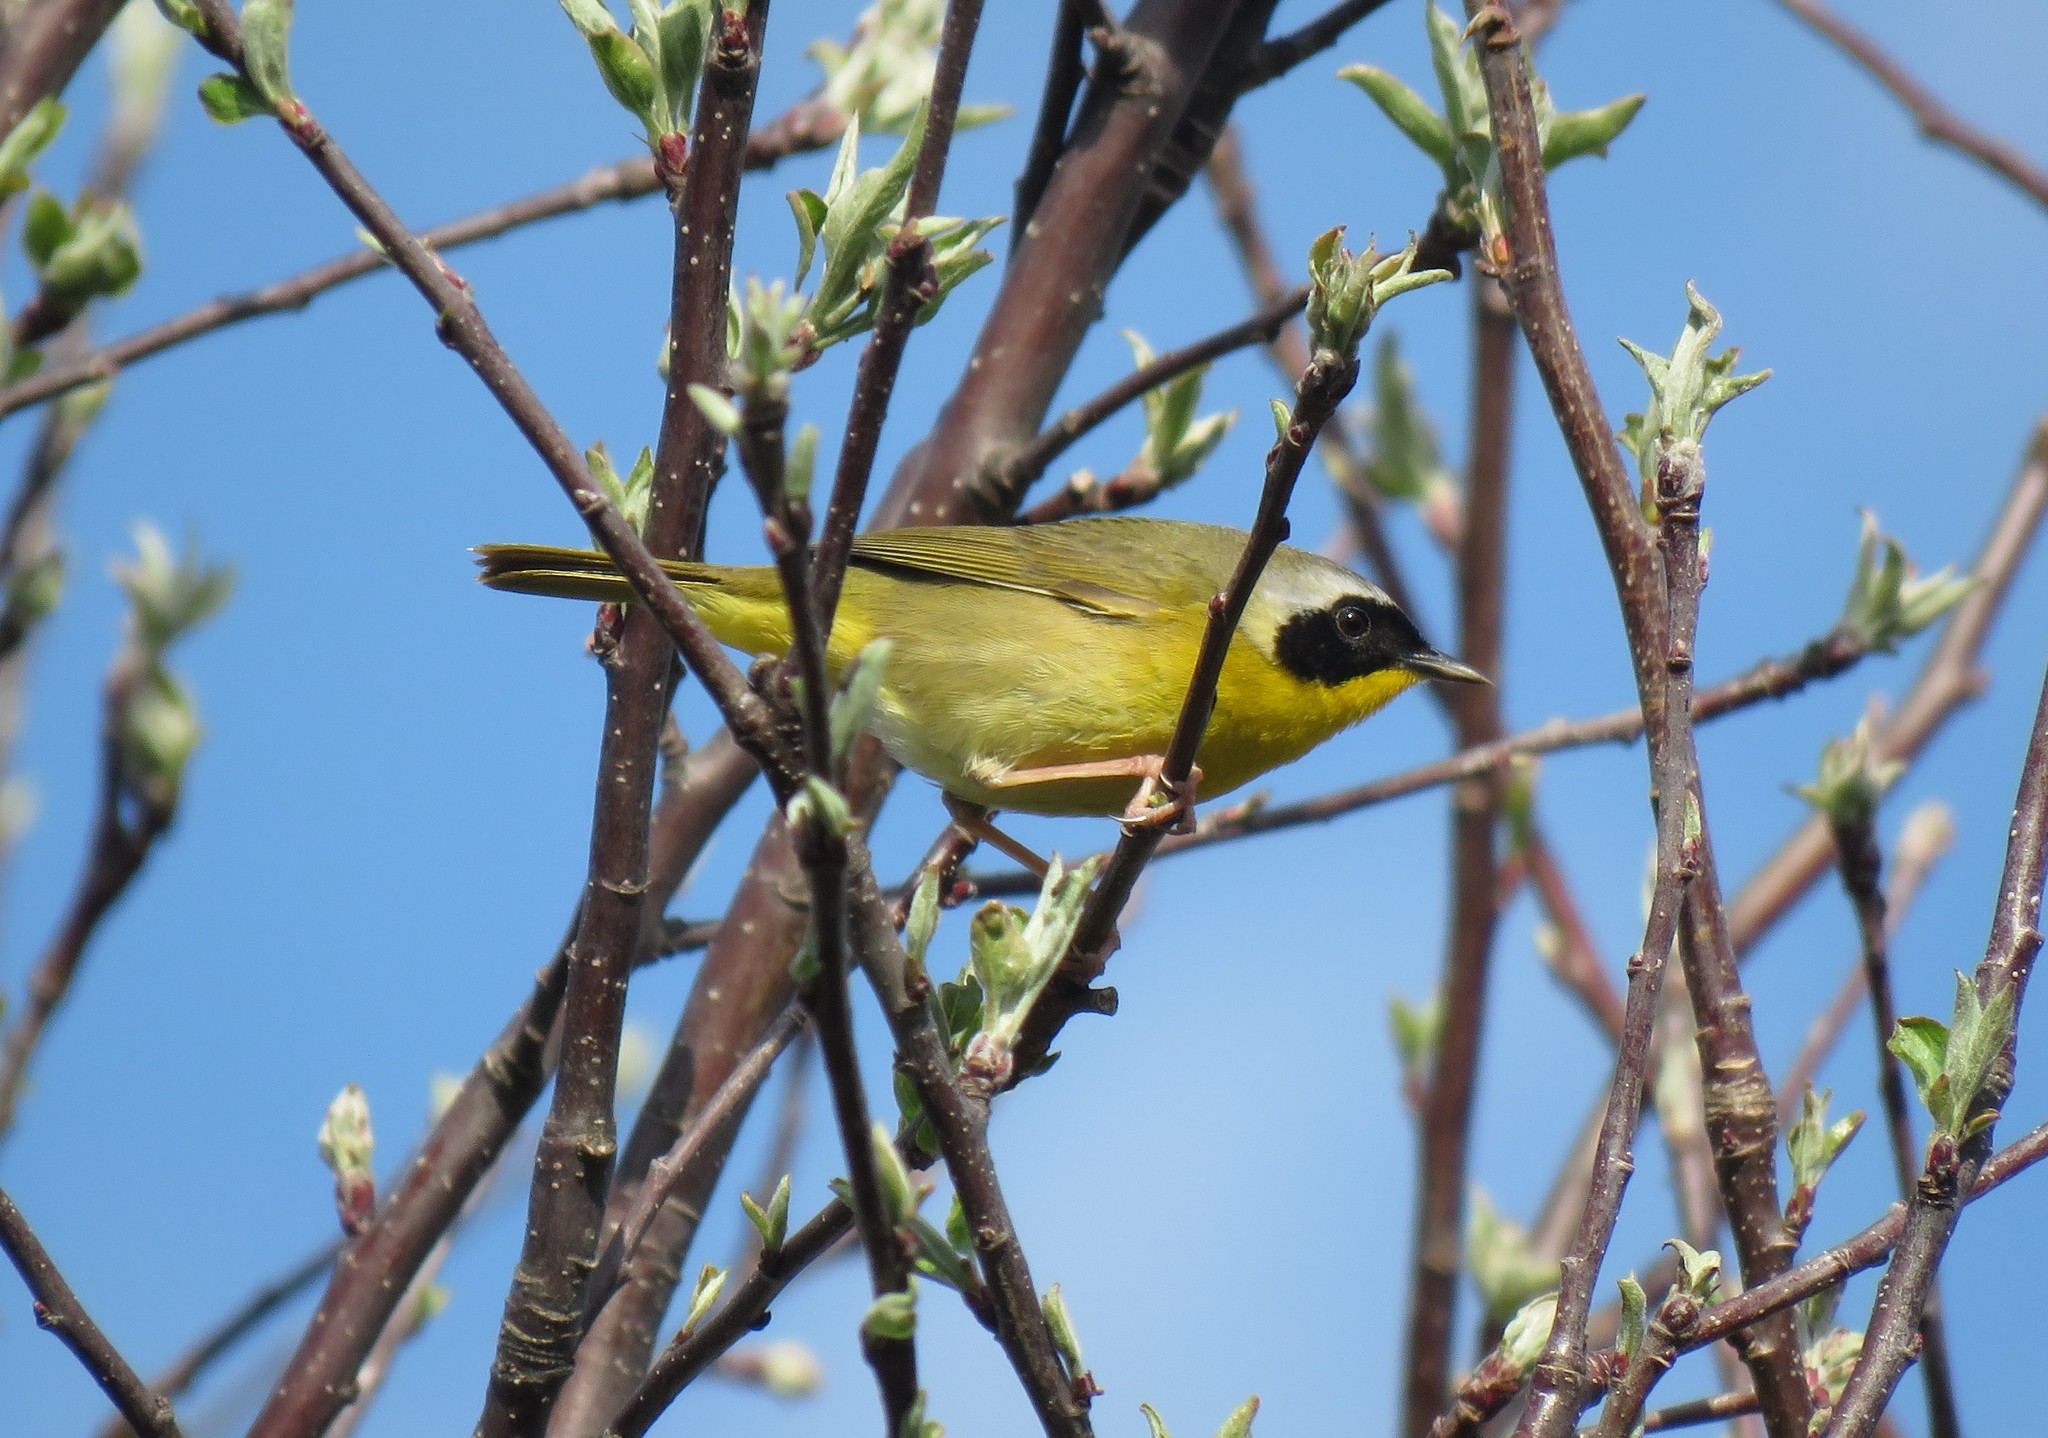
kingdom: Animalia
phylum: Chordata
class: Aves
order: Passeriformes
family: Parulidae
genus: Geothlypis
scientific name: Geothlypis trichas
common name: Common yellowthroat
